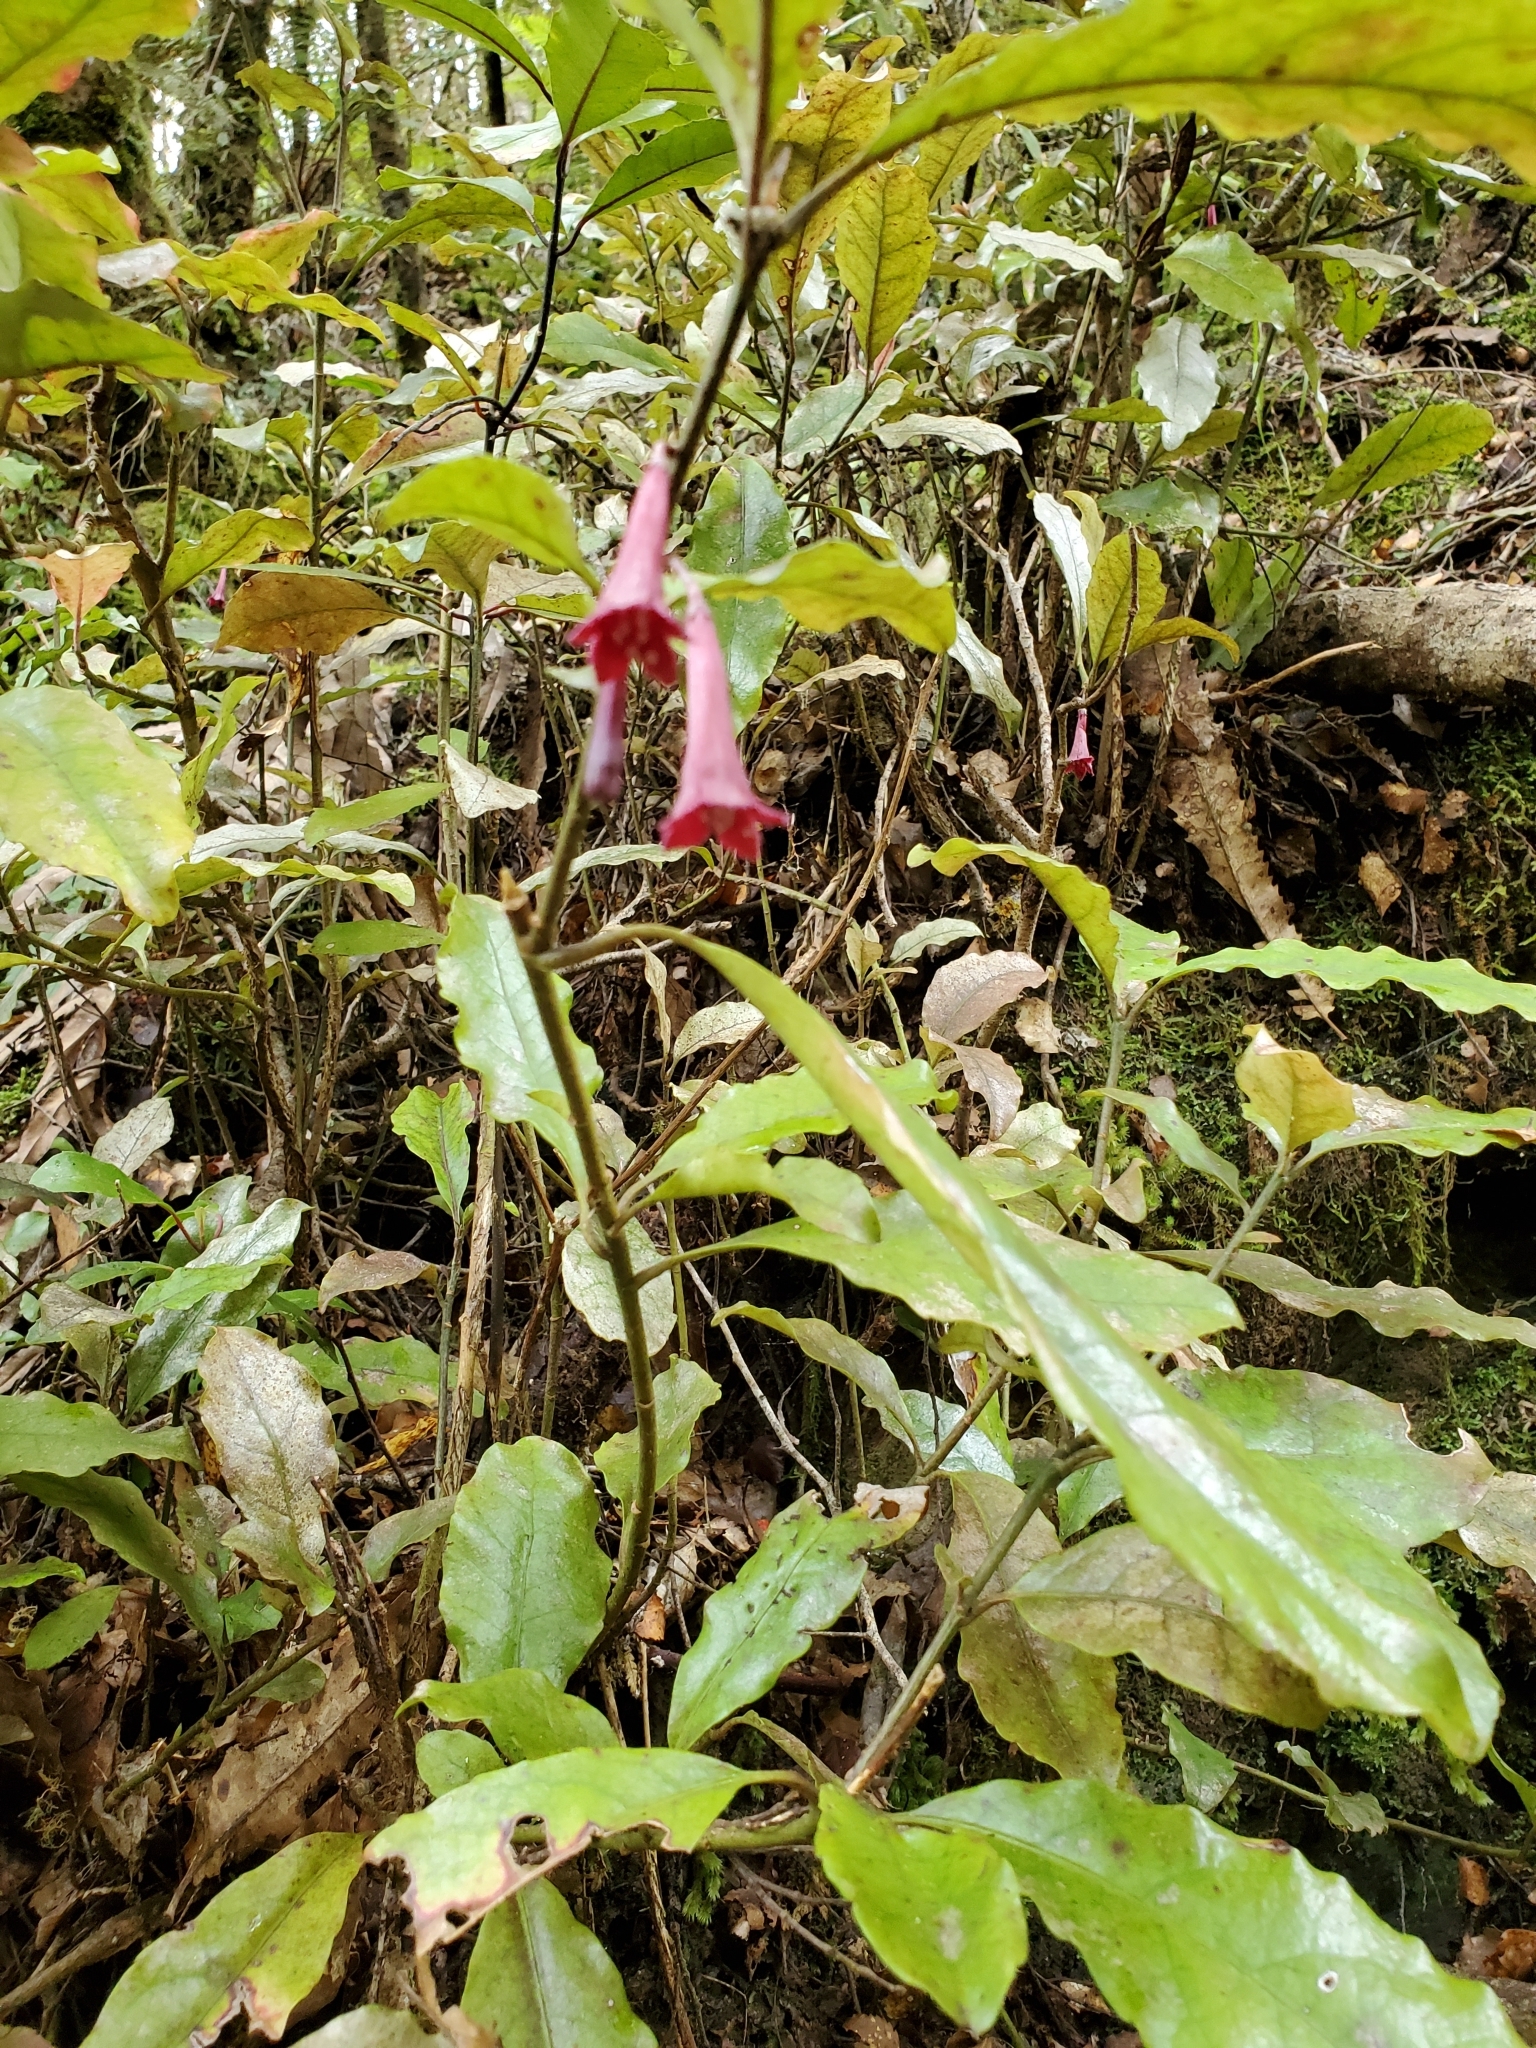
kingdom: Plantae
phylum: Tracheophyta
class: Magnoliopsida
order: Asterales
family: Alseuosmiaceae
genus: Alseuosmia
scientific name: Alseuosmia macrophylla
